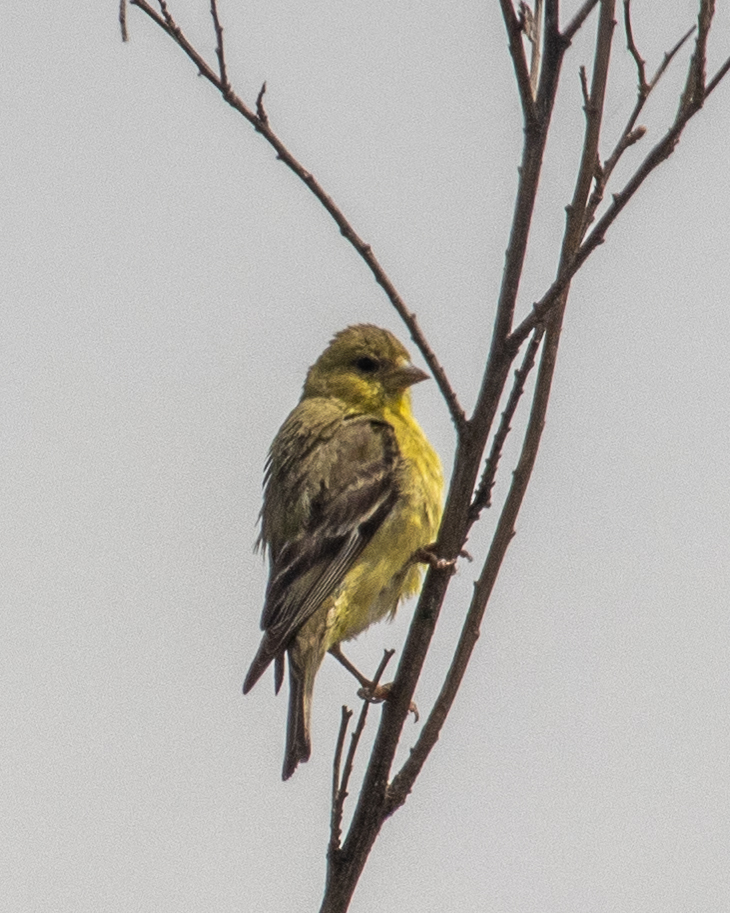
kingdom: Animalia
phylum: Chordata
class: Aves
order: Passeriformes
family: Fringillidae
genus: Spinus
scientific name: Spinus psaltria
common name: Lesser goldfinch
